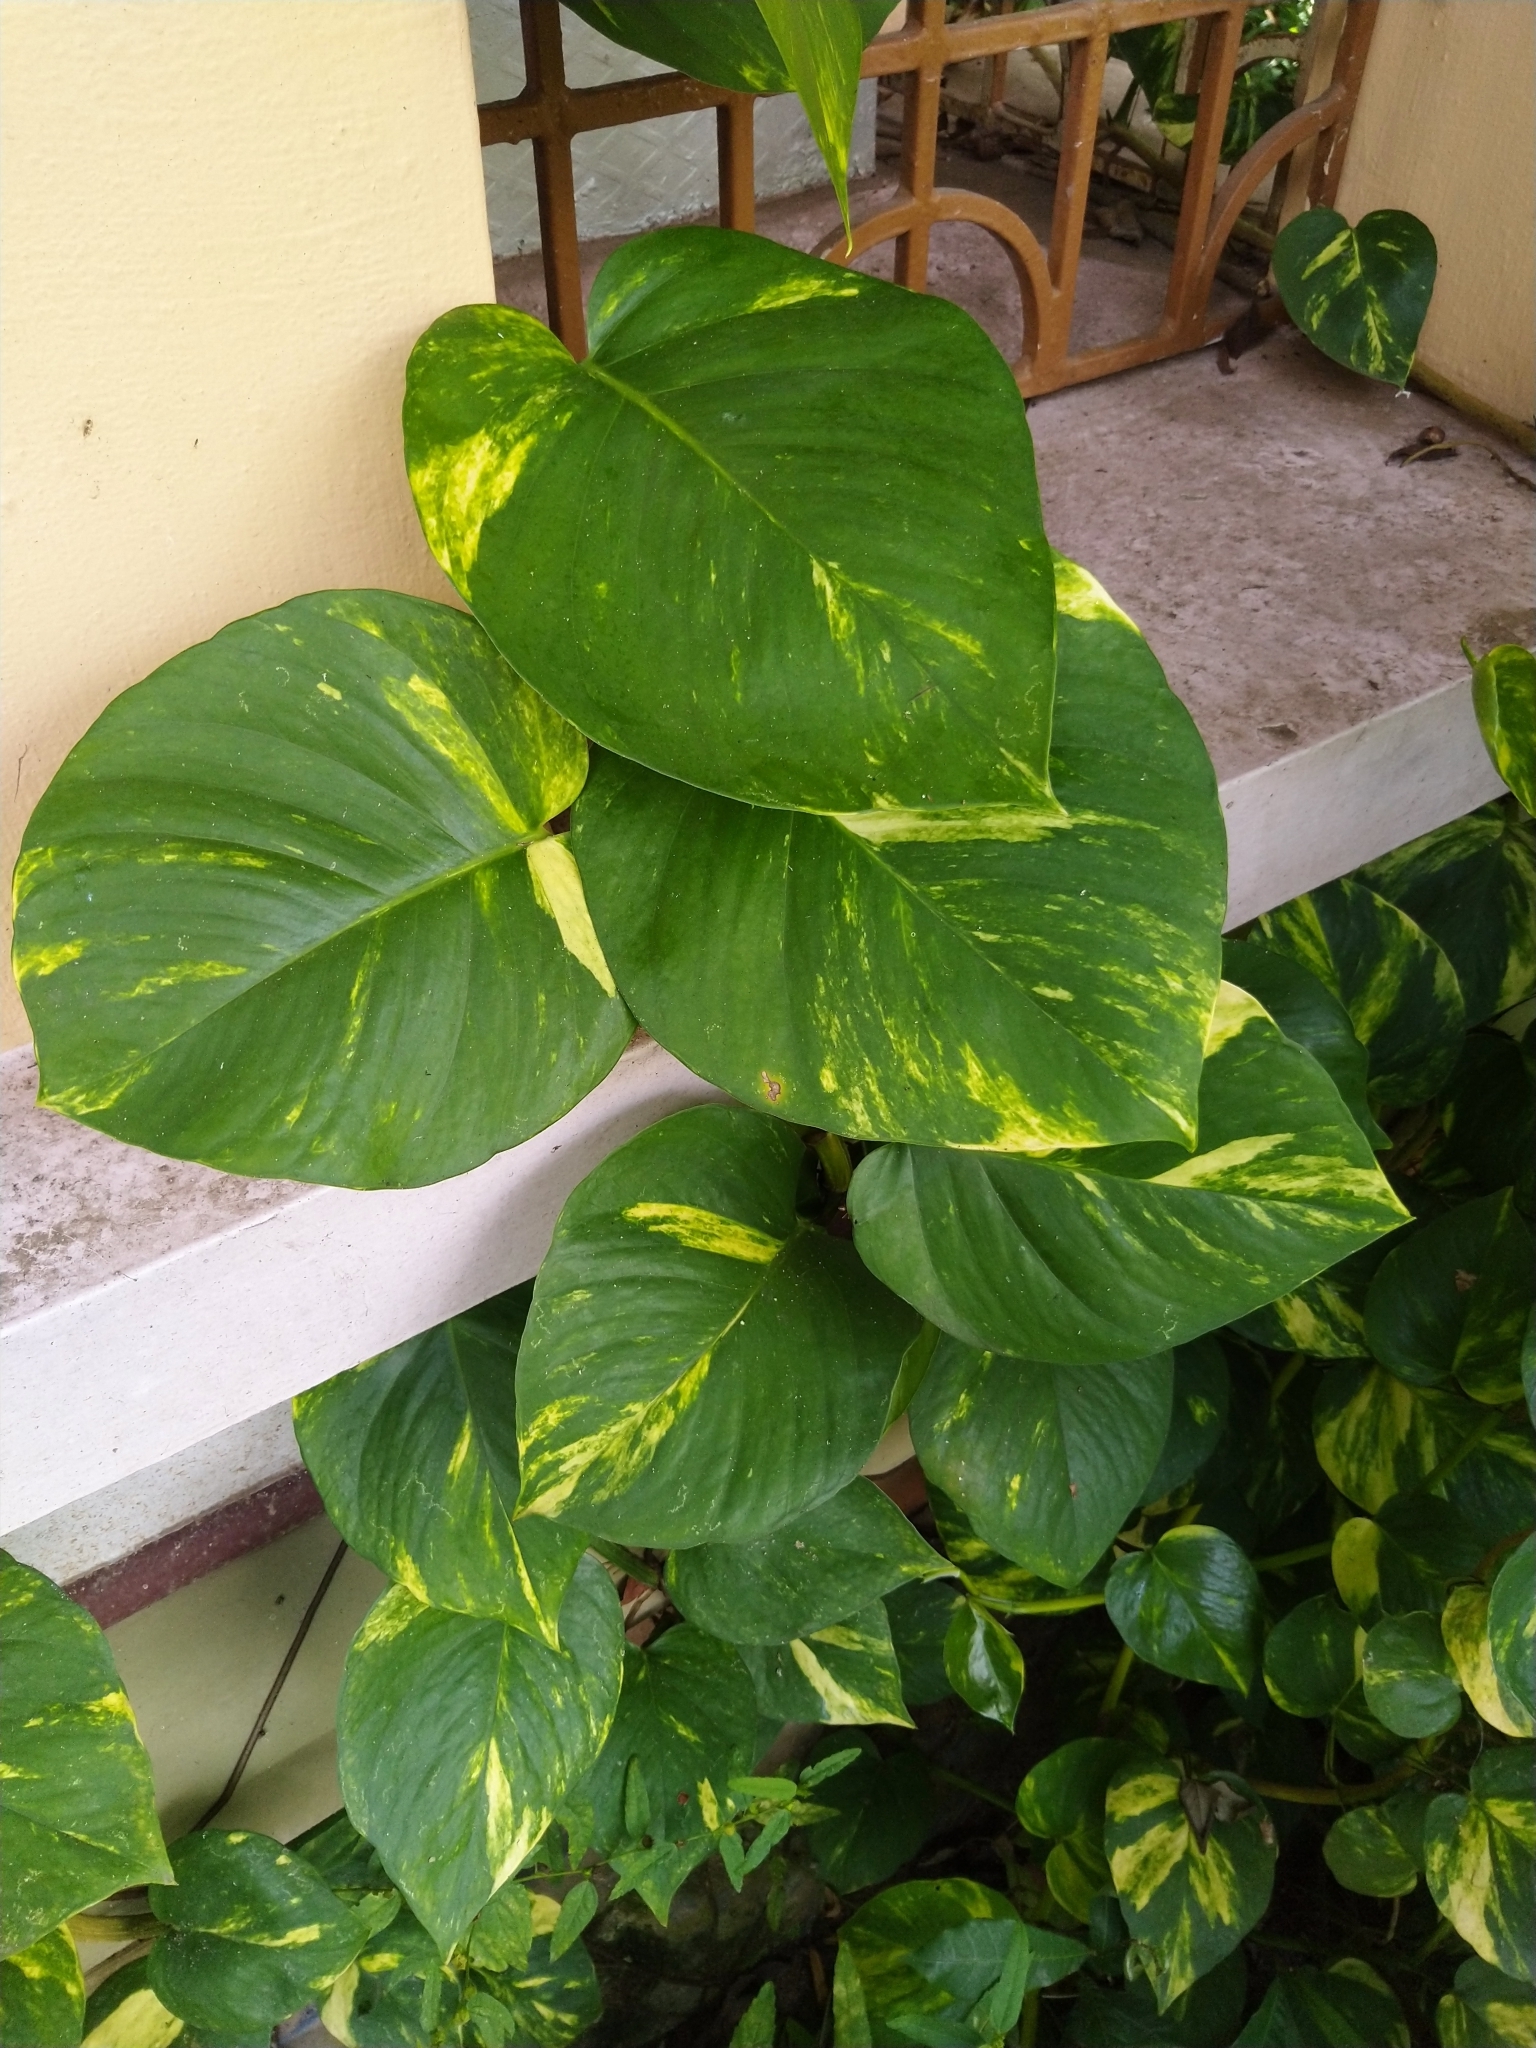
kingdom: Plantae
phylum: Tracheophyta
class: Liliopsida
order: Alismatales
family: Araceae
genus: Epipremnum
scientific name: Epipremnum aureum
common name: Golden hunter's-robe
